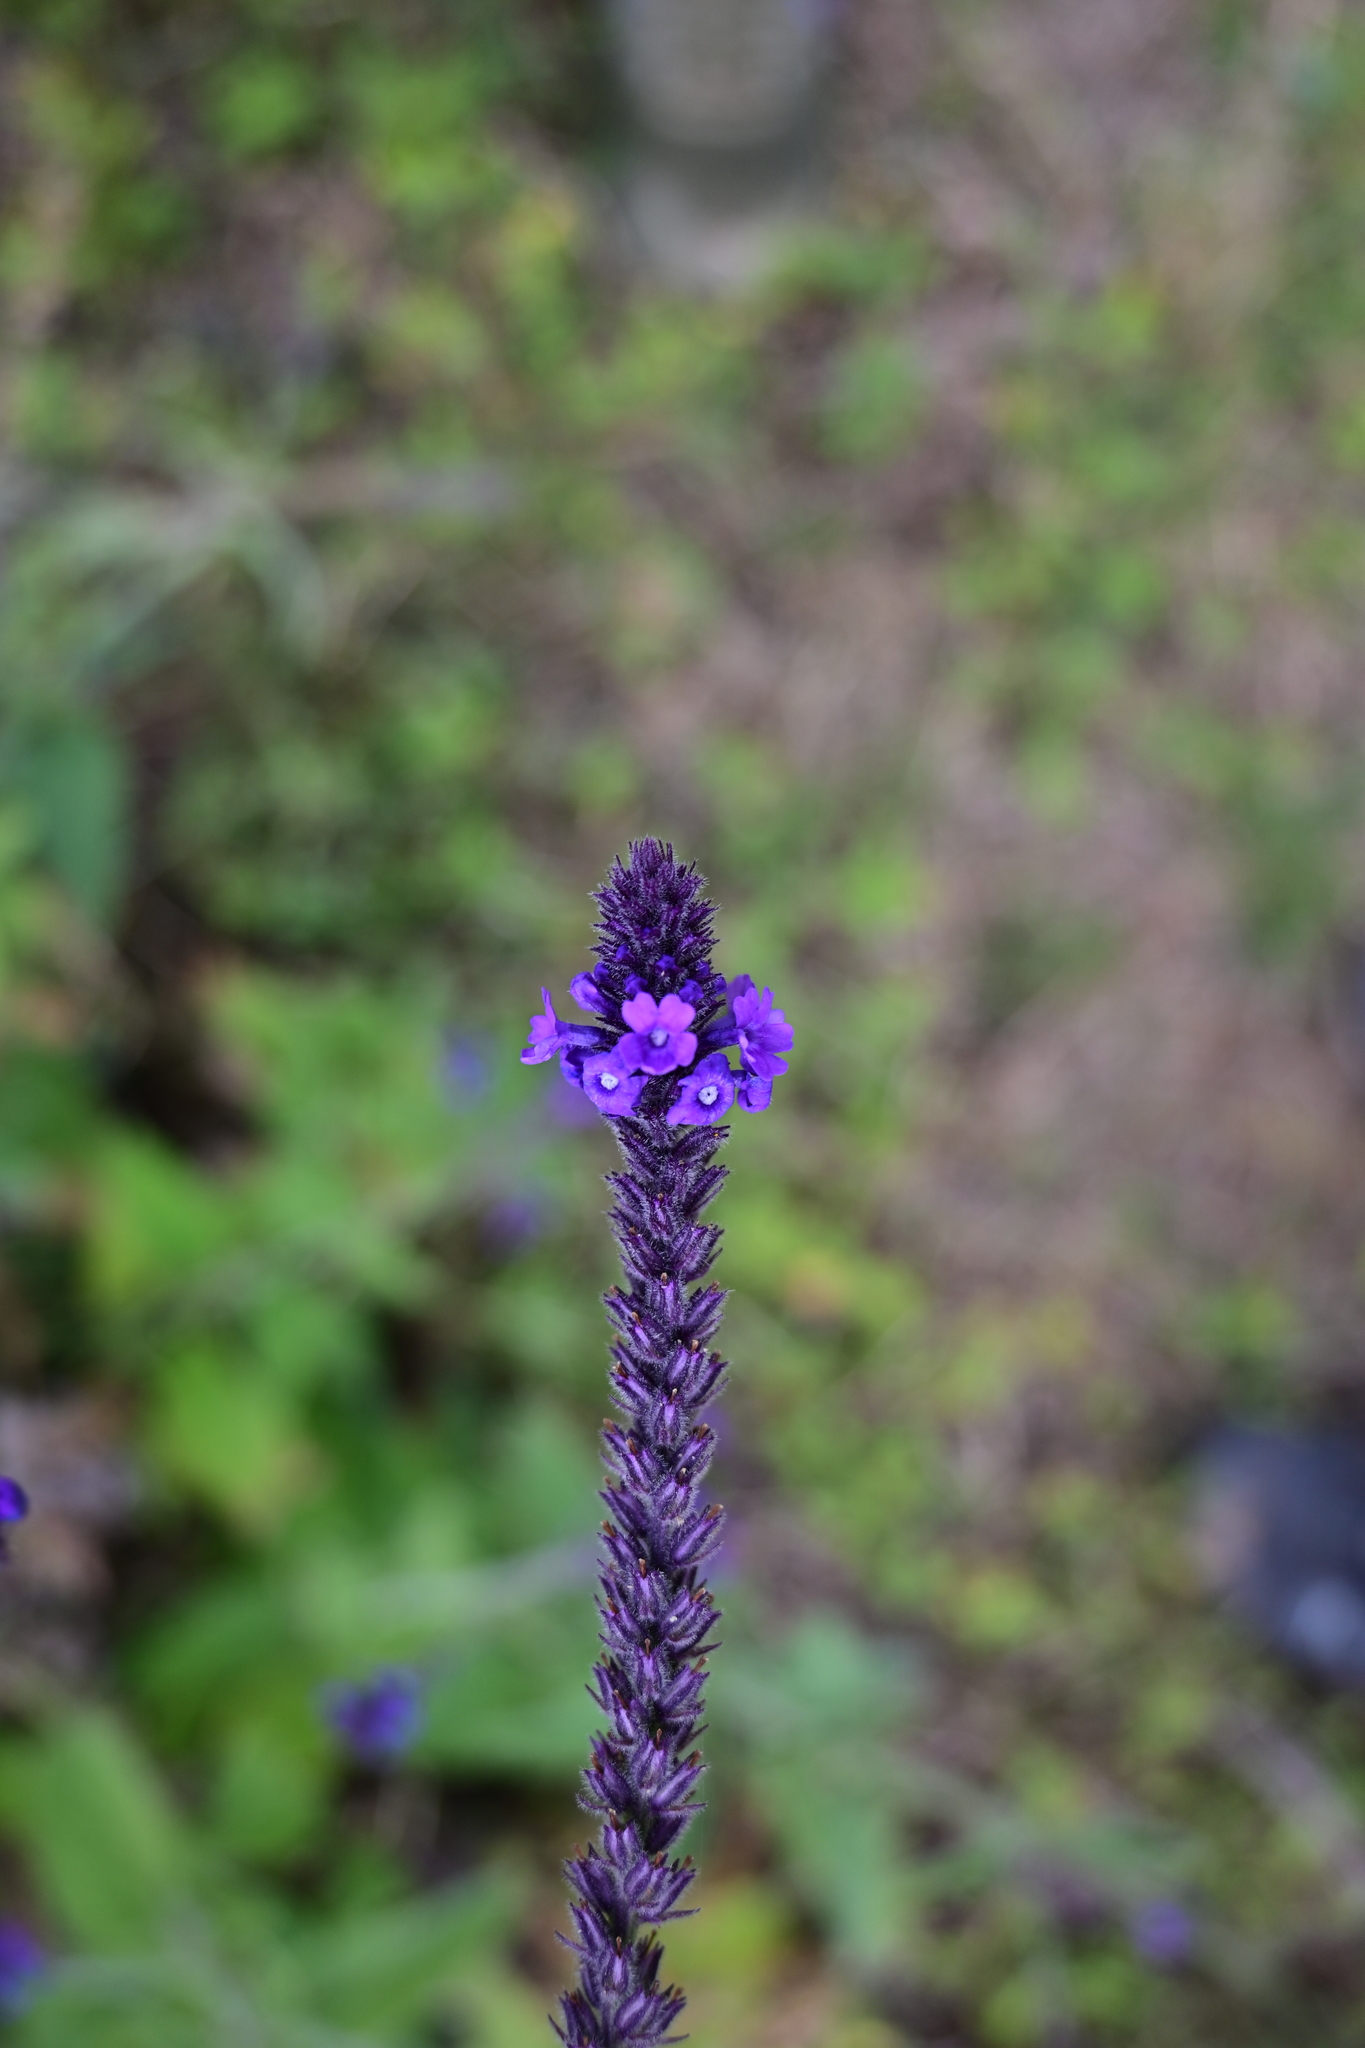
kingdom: Plantae
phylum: Tracheophyta
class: Magnoliopsida
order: Lamiales
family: Verbenaceae
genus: Verbena
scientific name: Verbena macdougalii
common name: New mexico vervain
